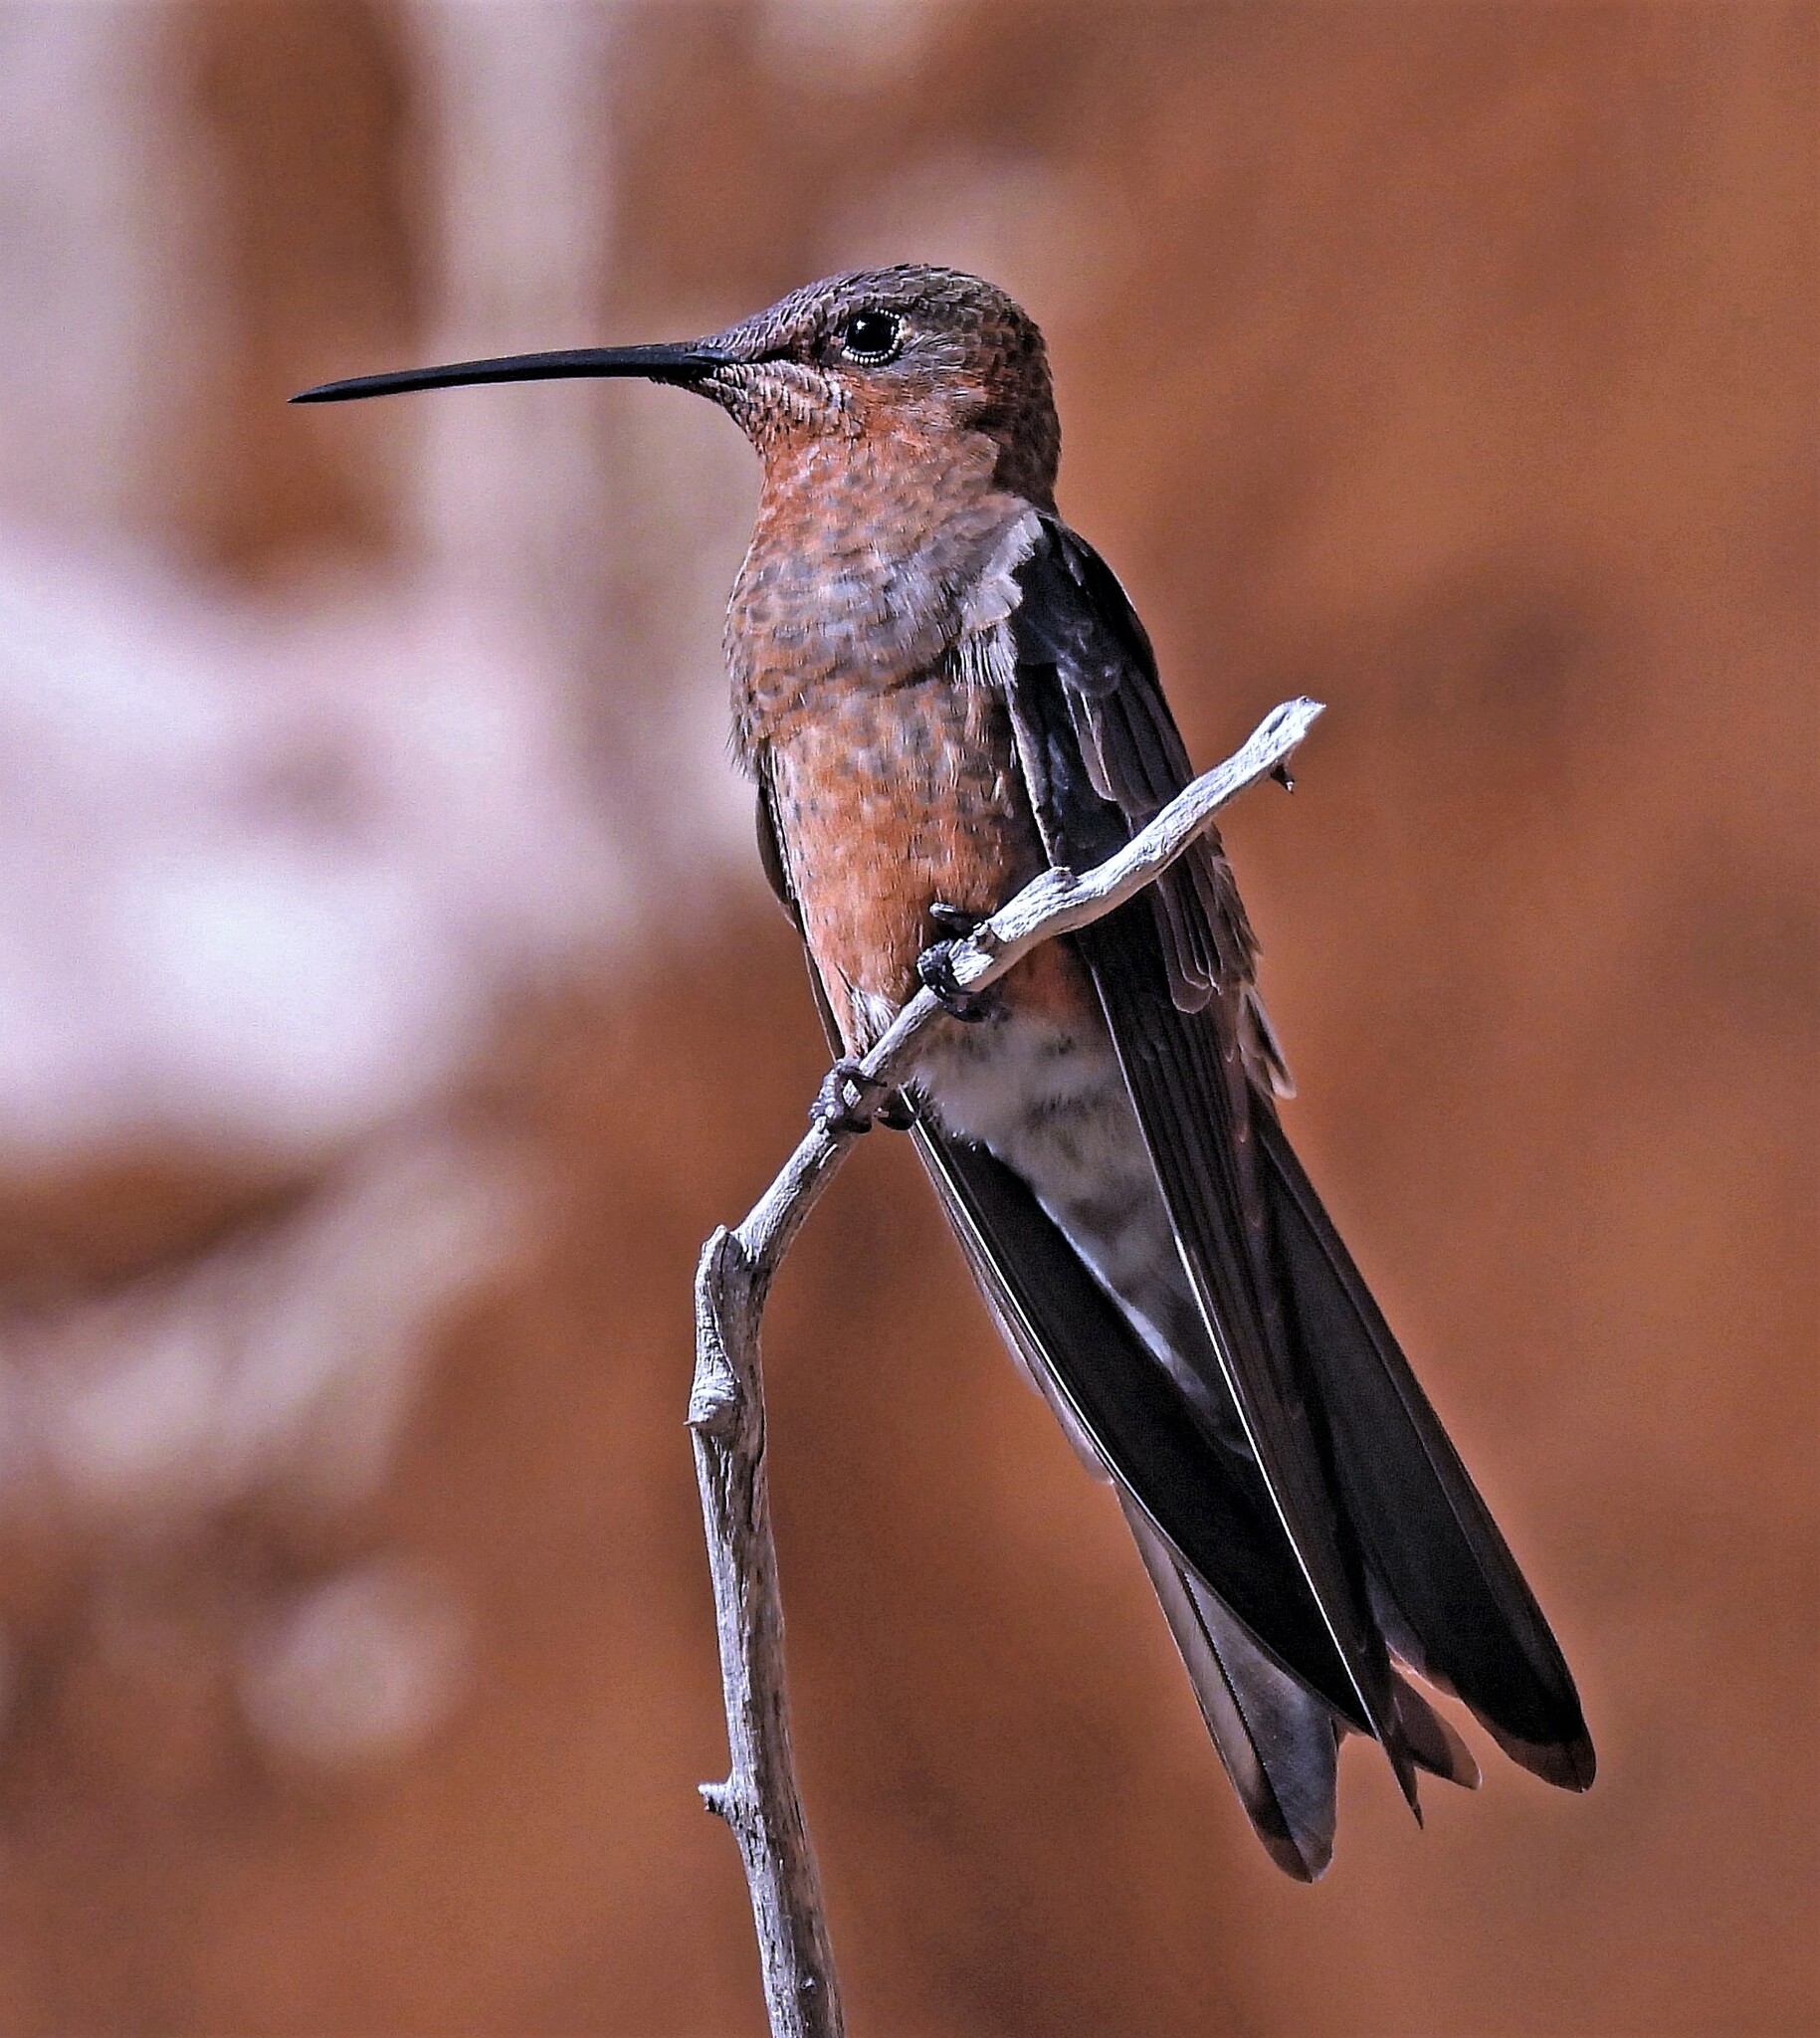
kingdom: Animalia
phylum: Chordata
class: Aves
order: Apodiformes
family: Trochilidae
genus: Patagona
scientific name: Patagona gigas
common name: Giant hummingbird
